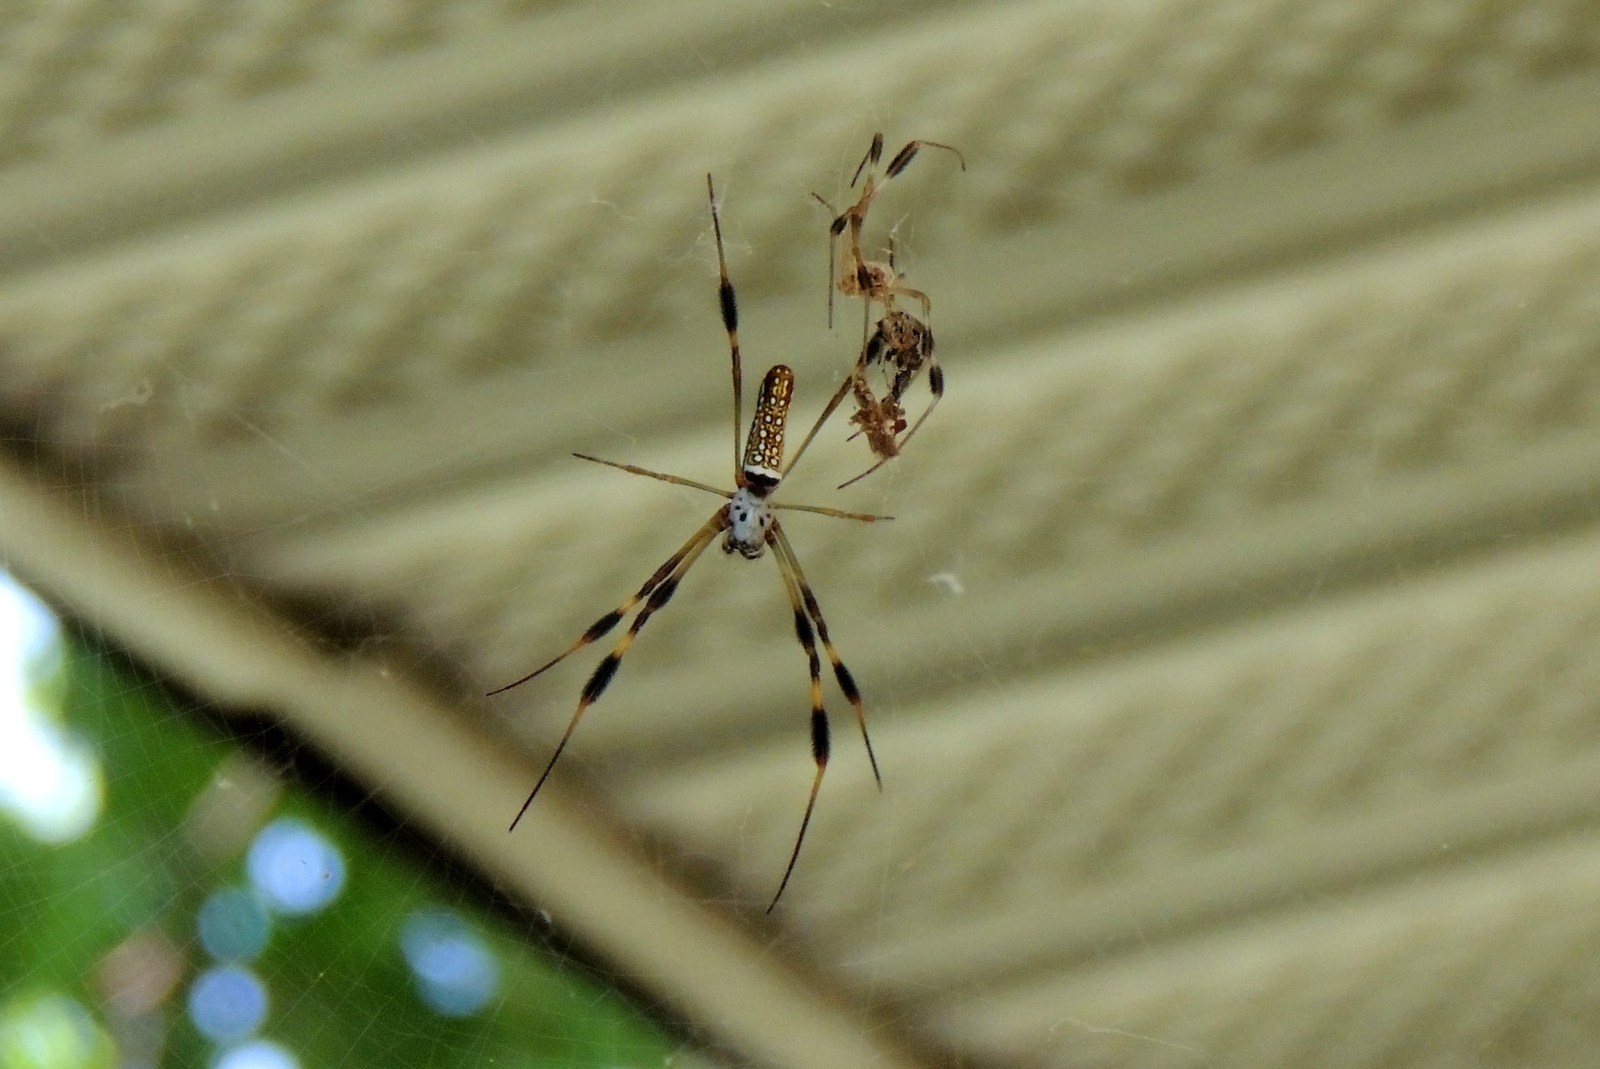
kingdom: Animalia
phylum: Arthropoda
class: Arachnida
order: Araneae
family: Araneidae
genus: Trichonephila
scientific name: Trichonephila clavipes
